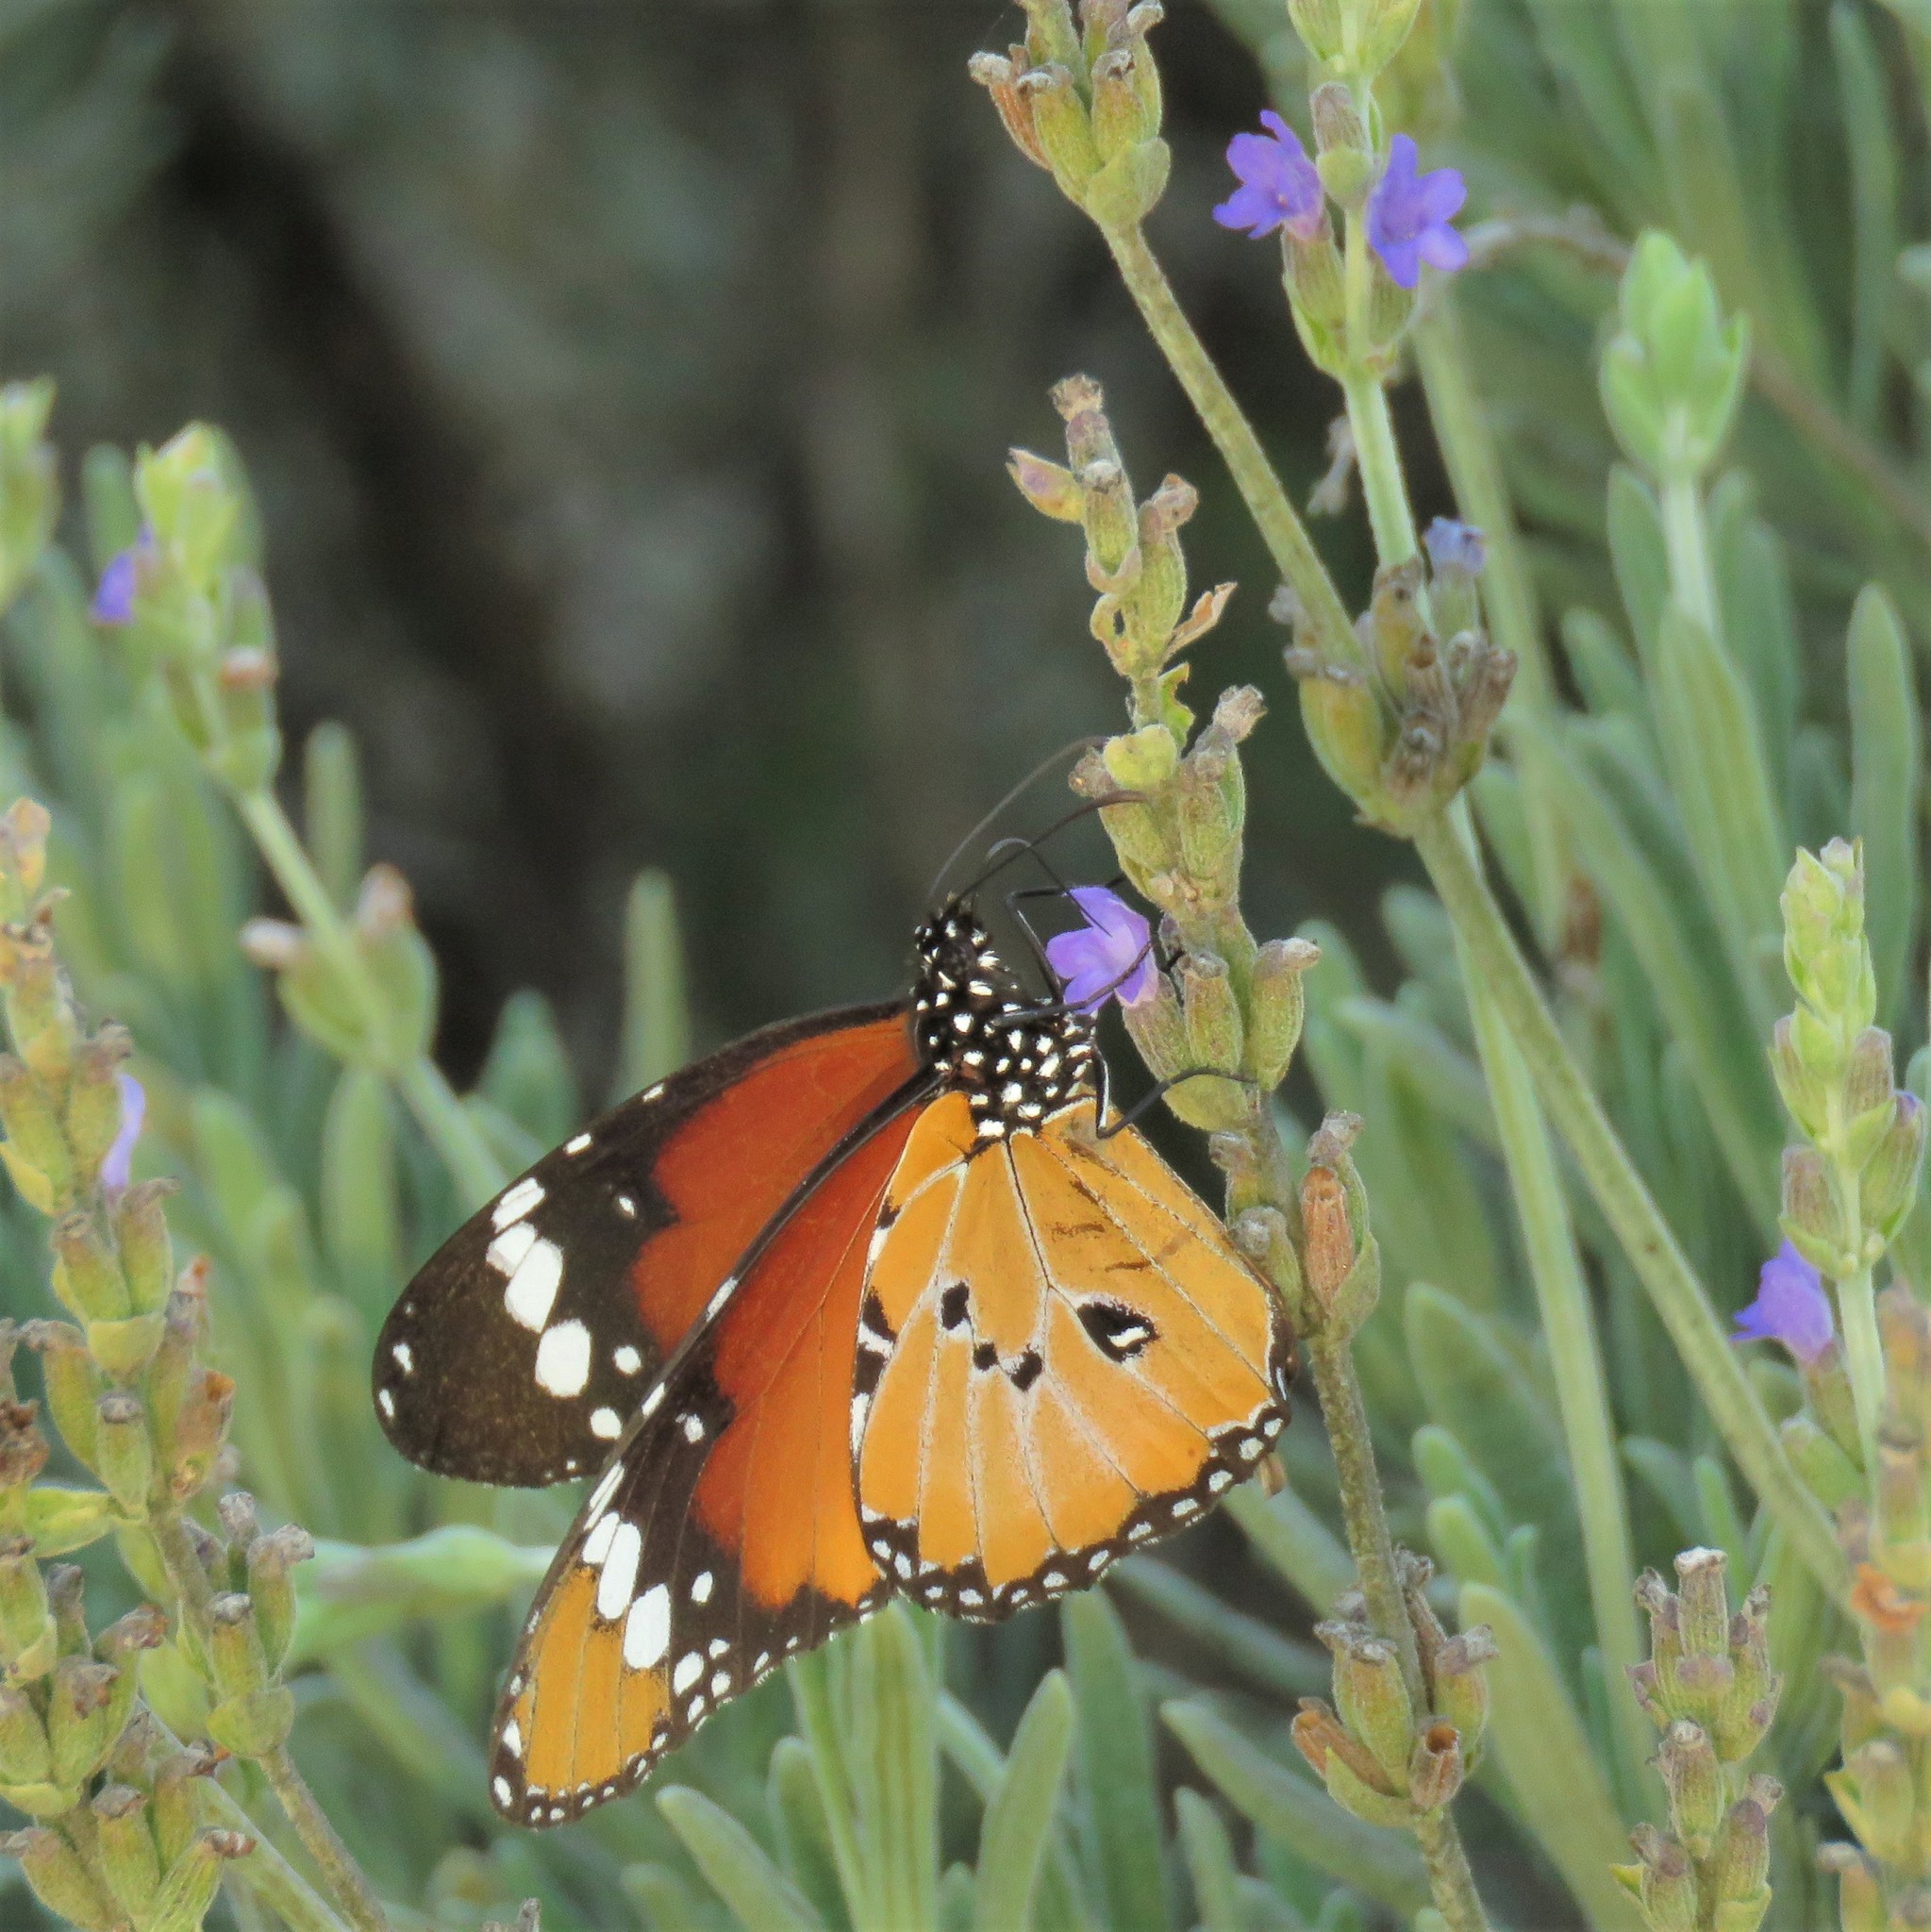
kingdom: Animalia
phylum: Arthropoda
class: Insecta
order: Lepidoptera
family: Nymphalidae
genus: Danaus
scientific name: Danaus chrysippus
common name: Plain tiger
